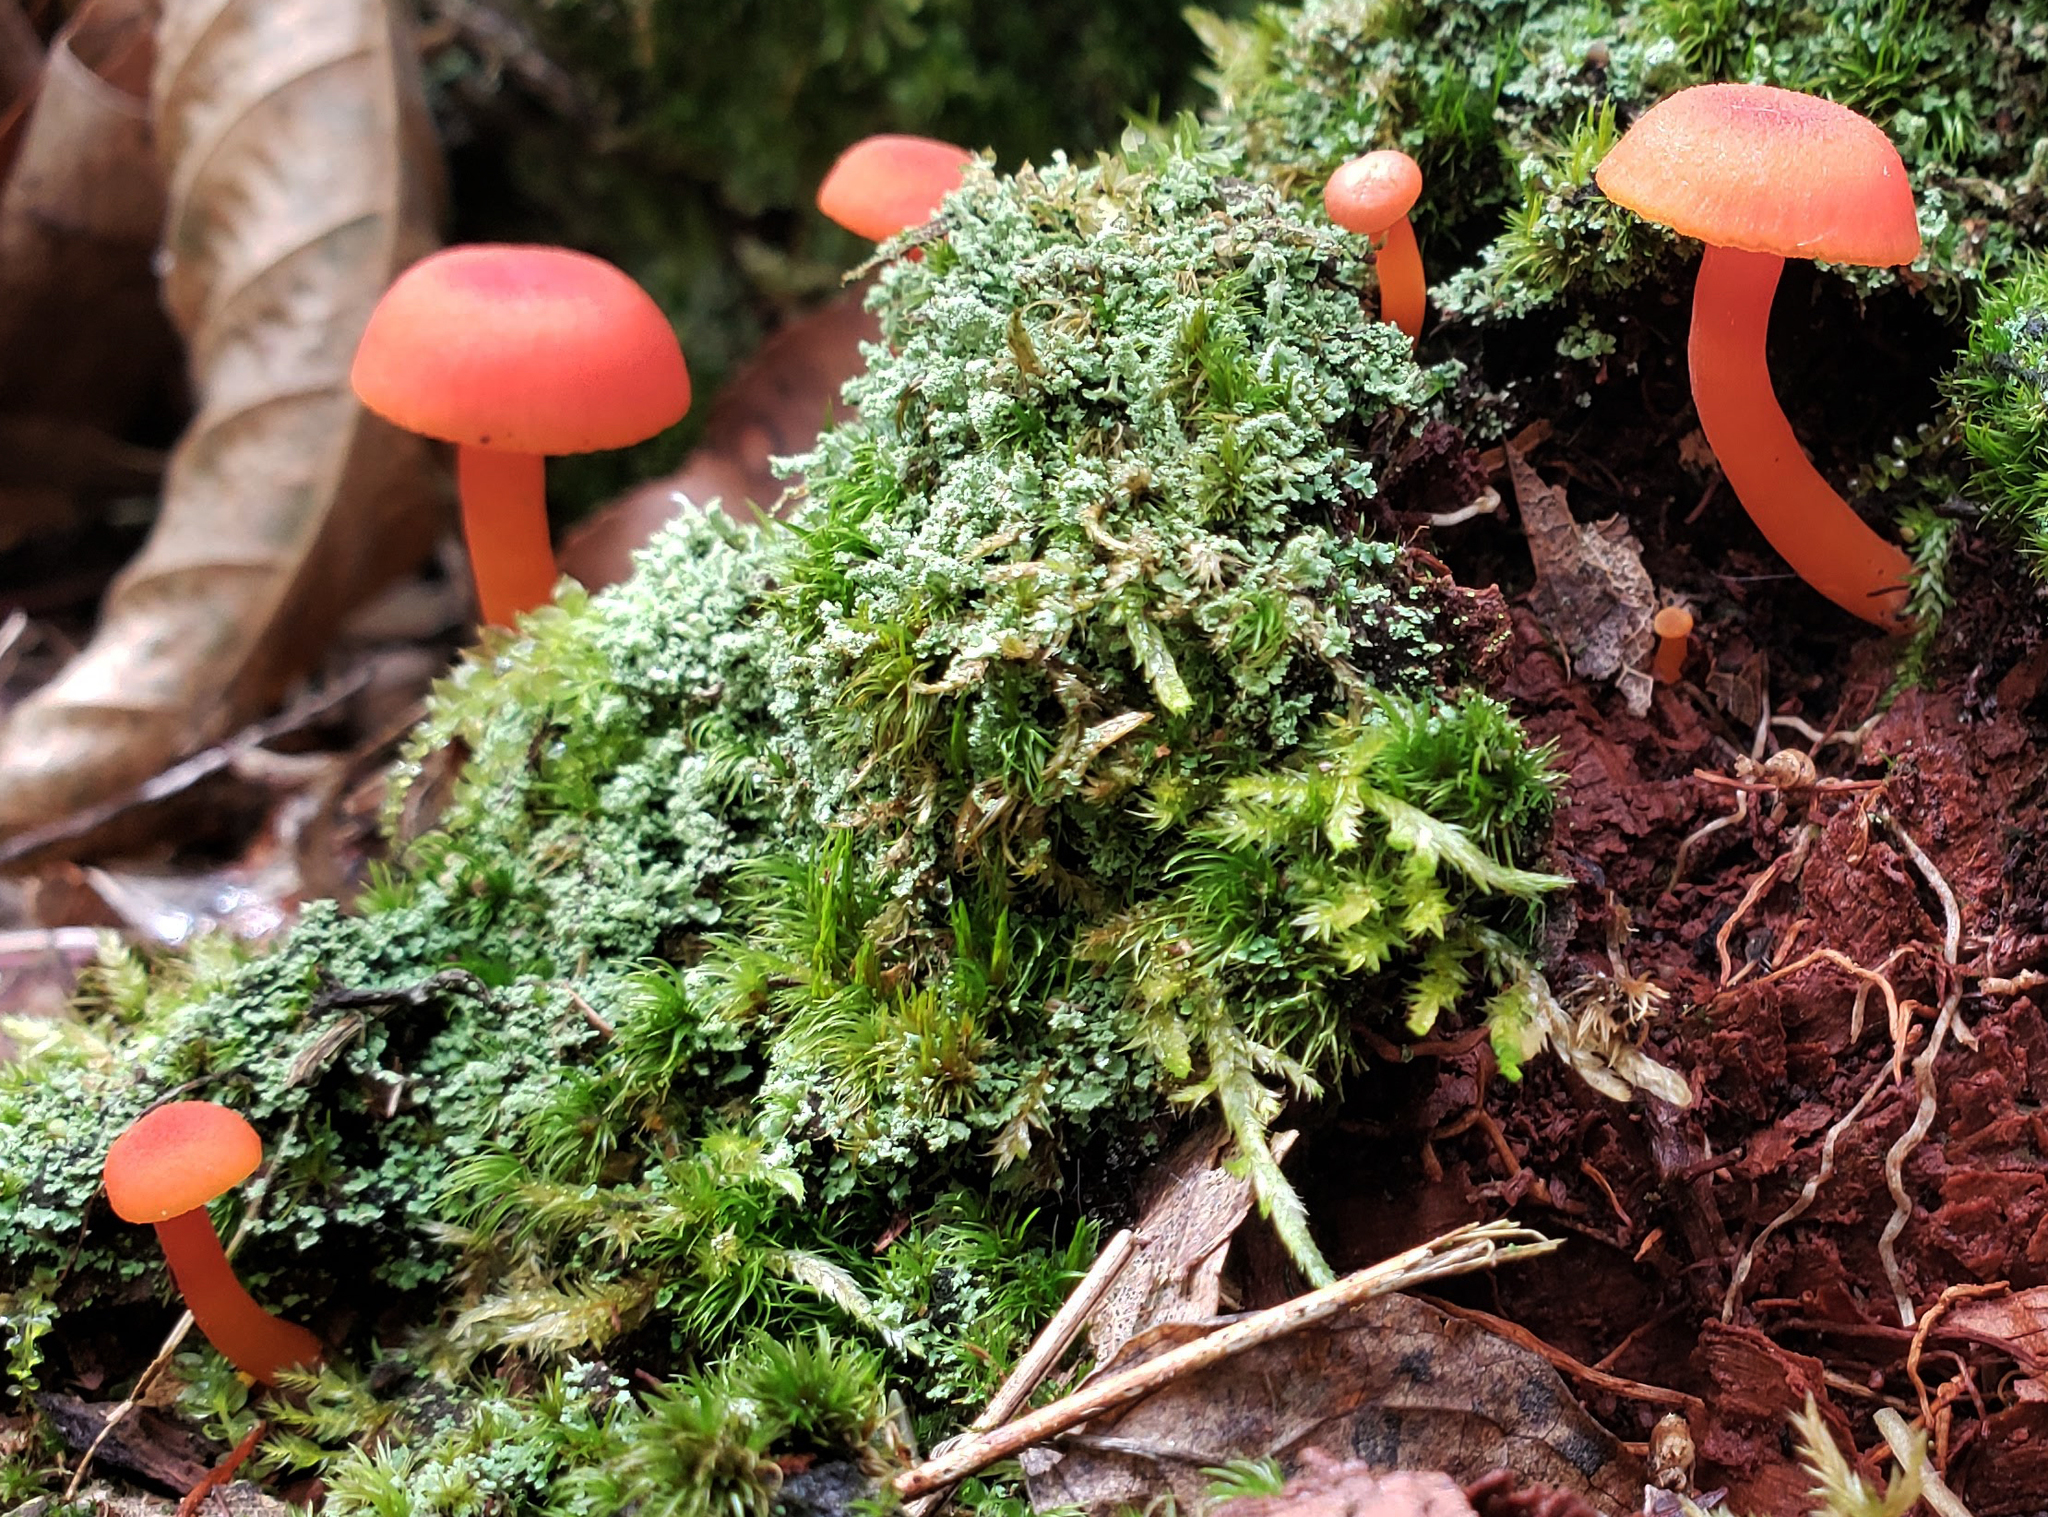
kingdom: Fungi
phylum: Basidiomycota
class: Agaricomycetes
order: Agaricales
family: Hygrophoraceae
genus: Hygrocybe
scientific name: Hygrocybe miniata
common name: Vermilion waxcap
